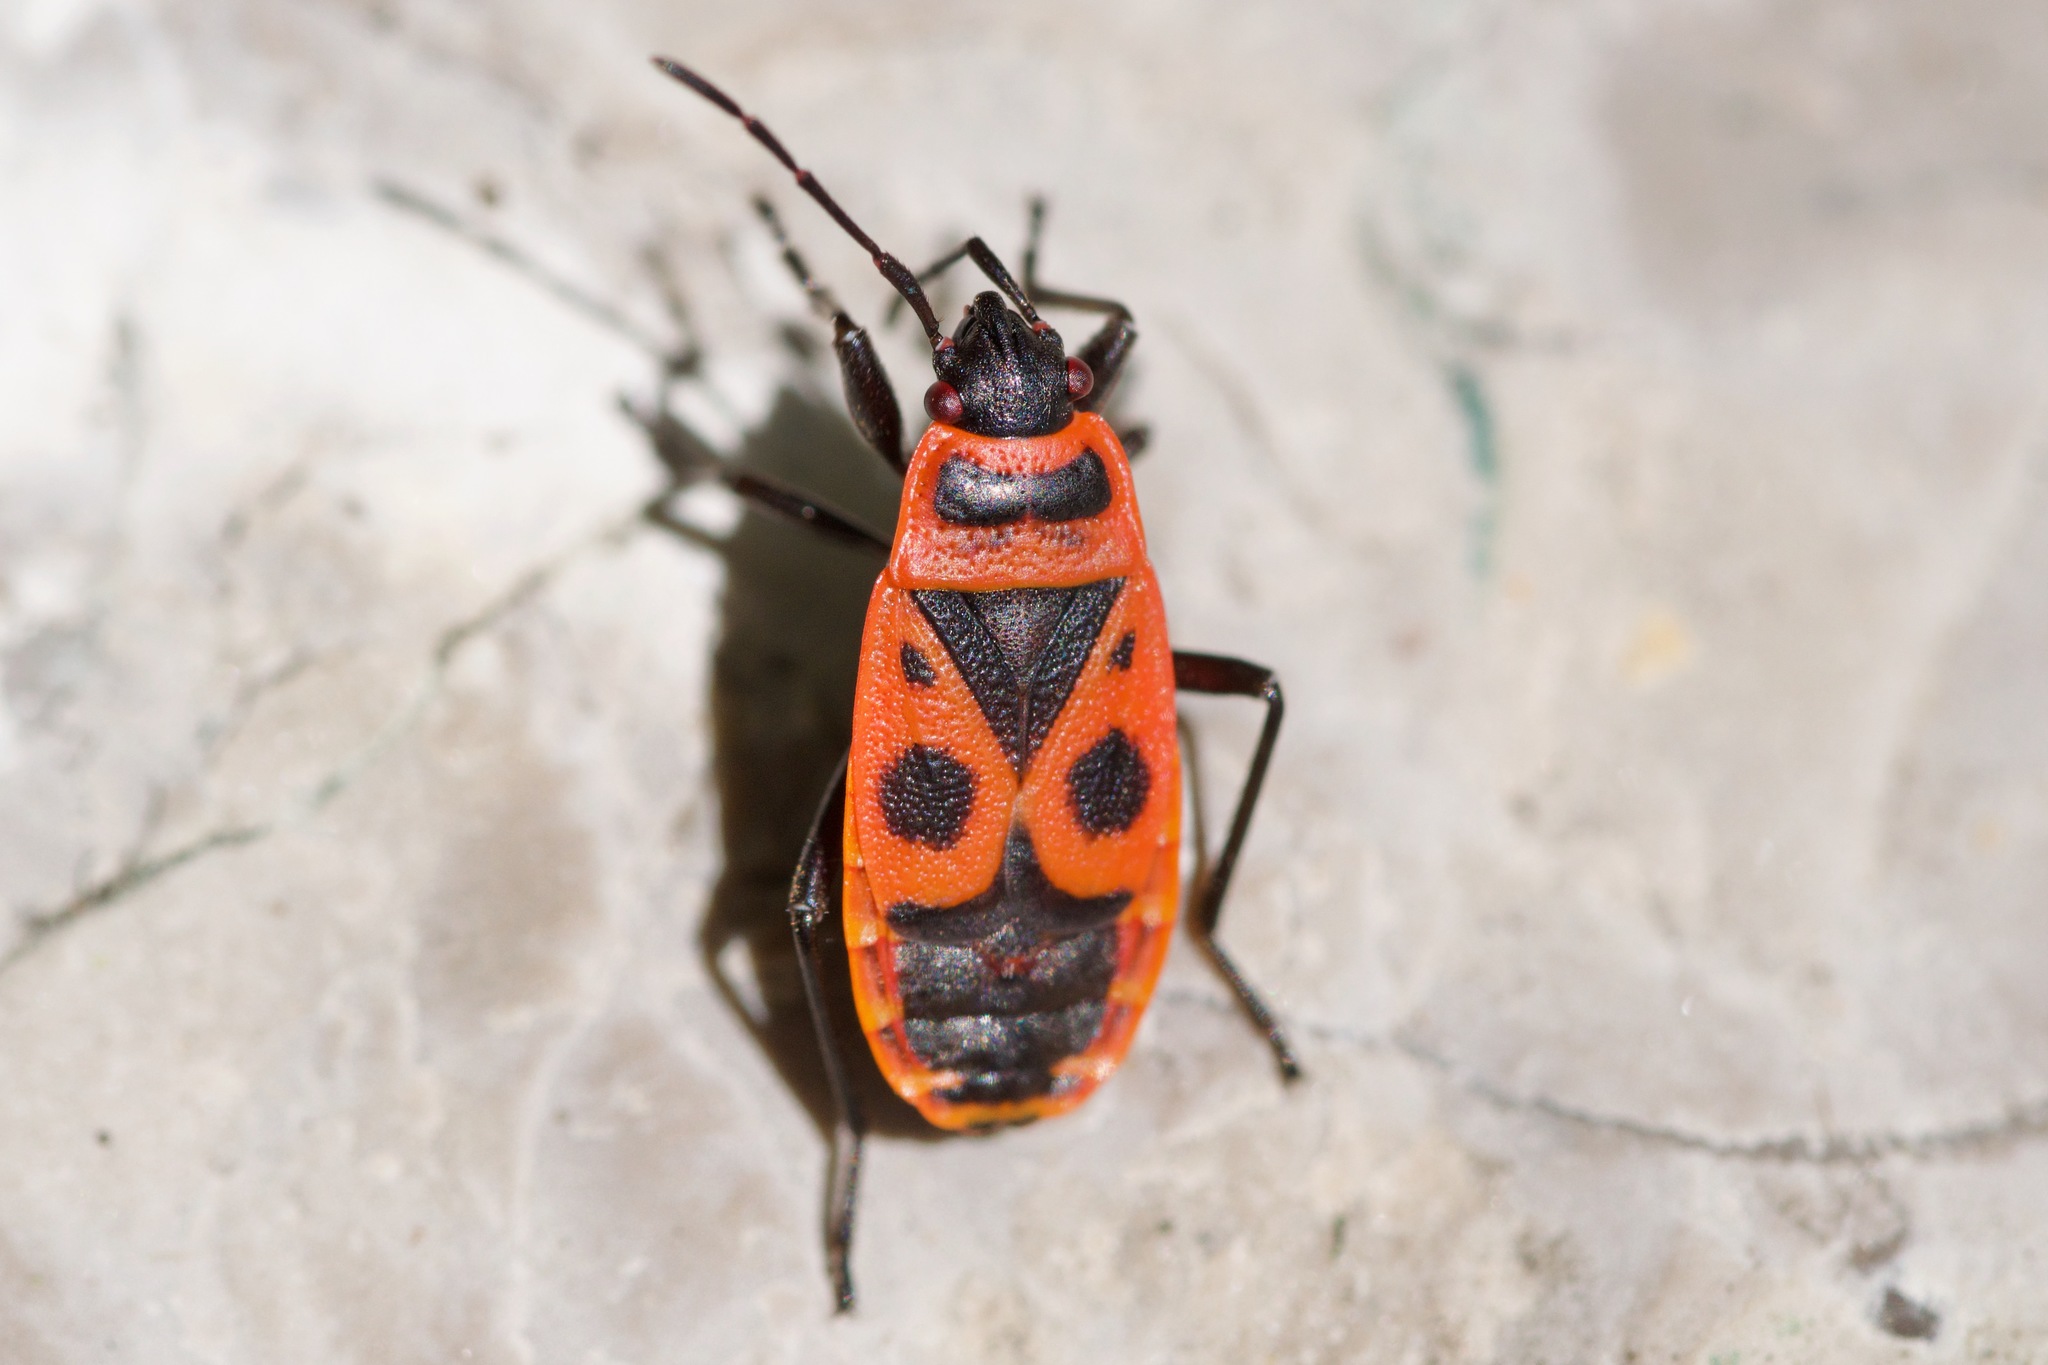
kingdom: Animalia
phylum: Arthropoda
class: Insecta
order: Hemiptera
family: Pyrrhocoridae
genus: Pyrrhocoris
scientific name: Pyrrhocoris apterus
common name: Firebug
